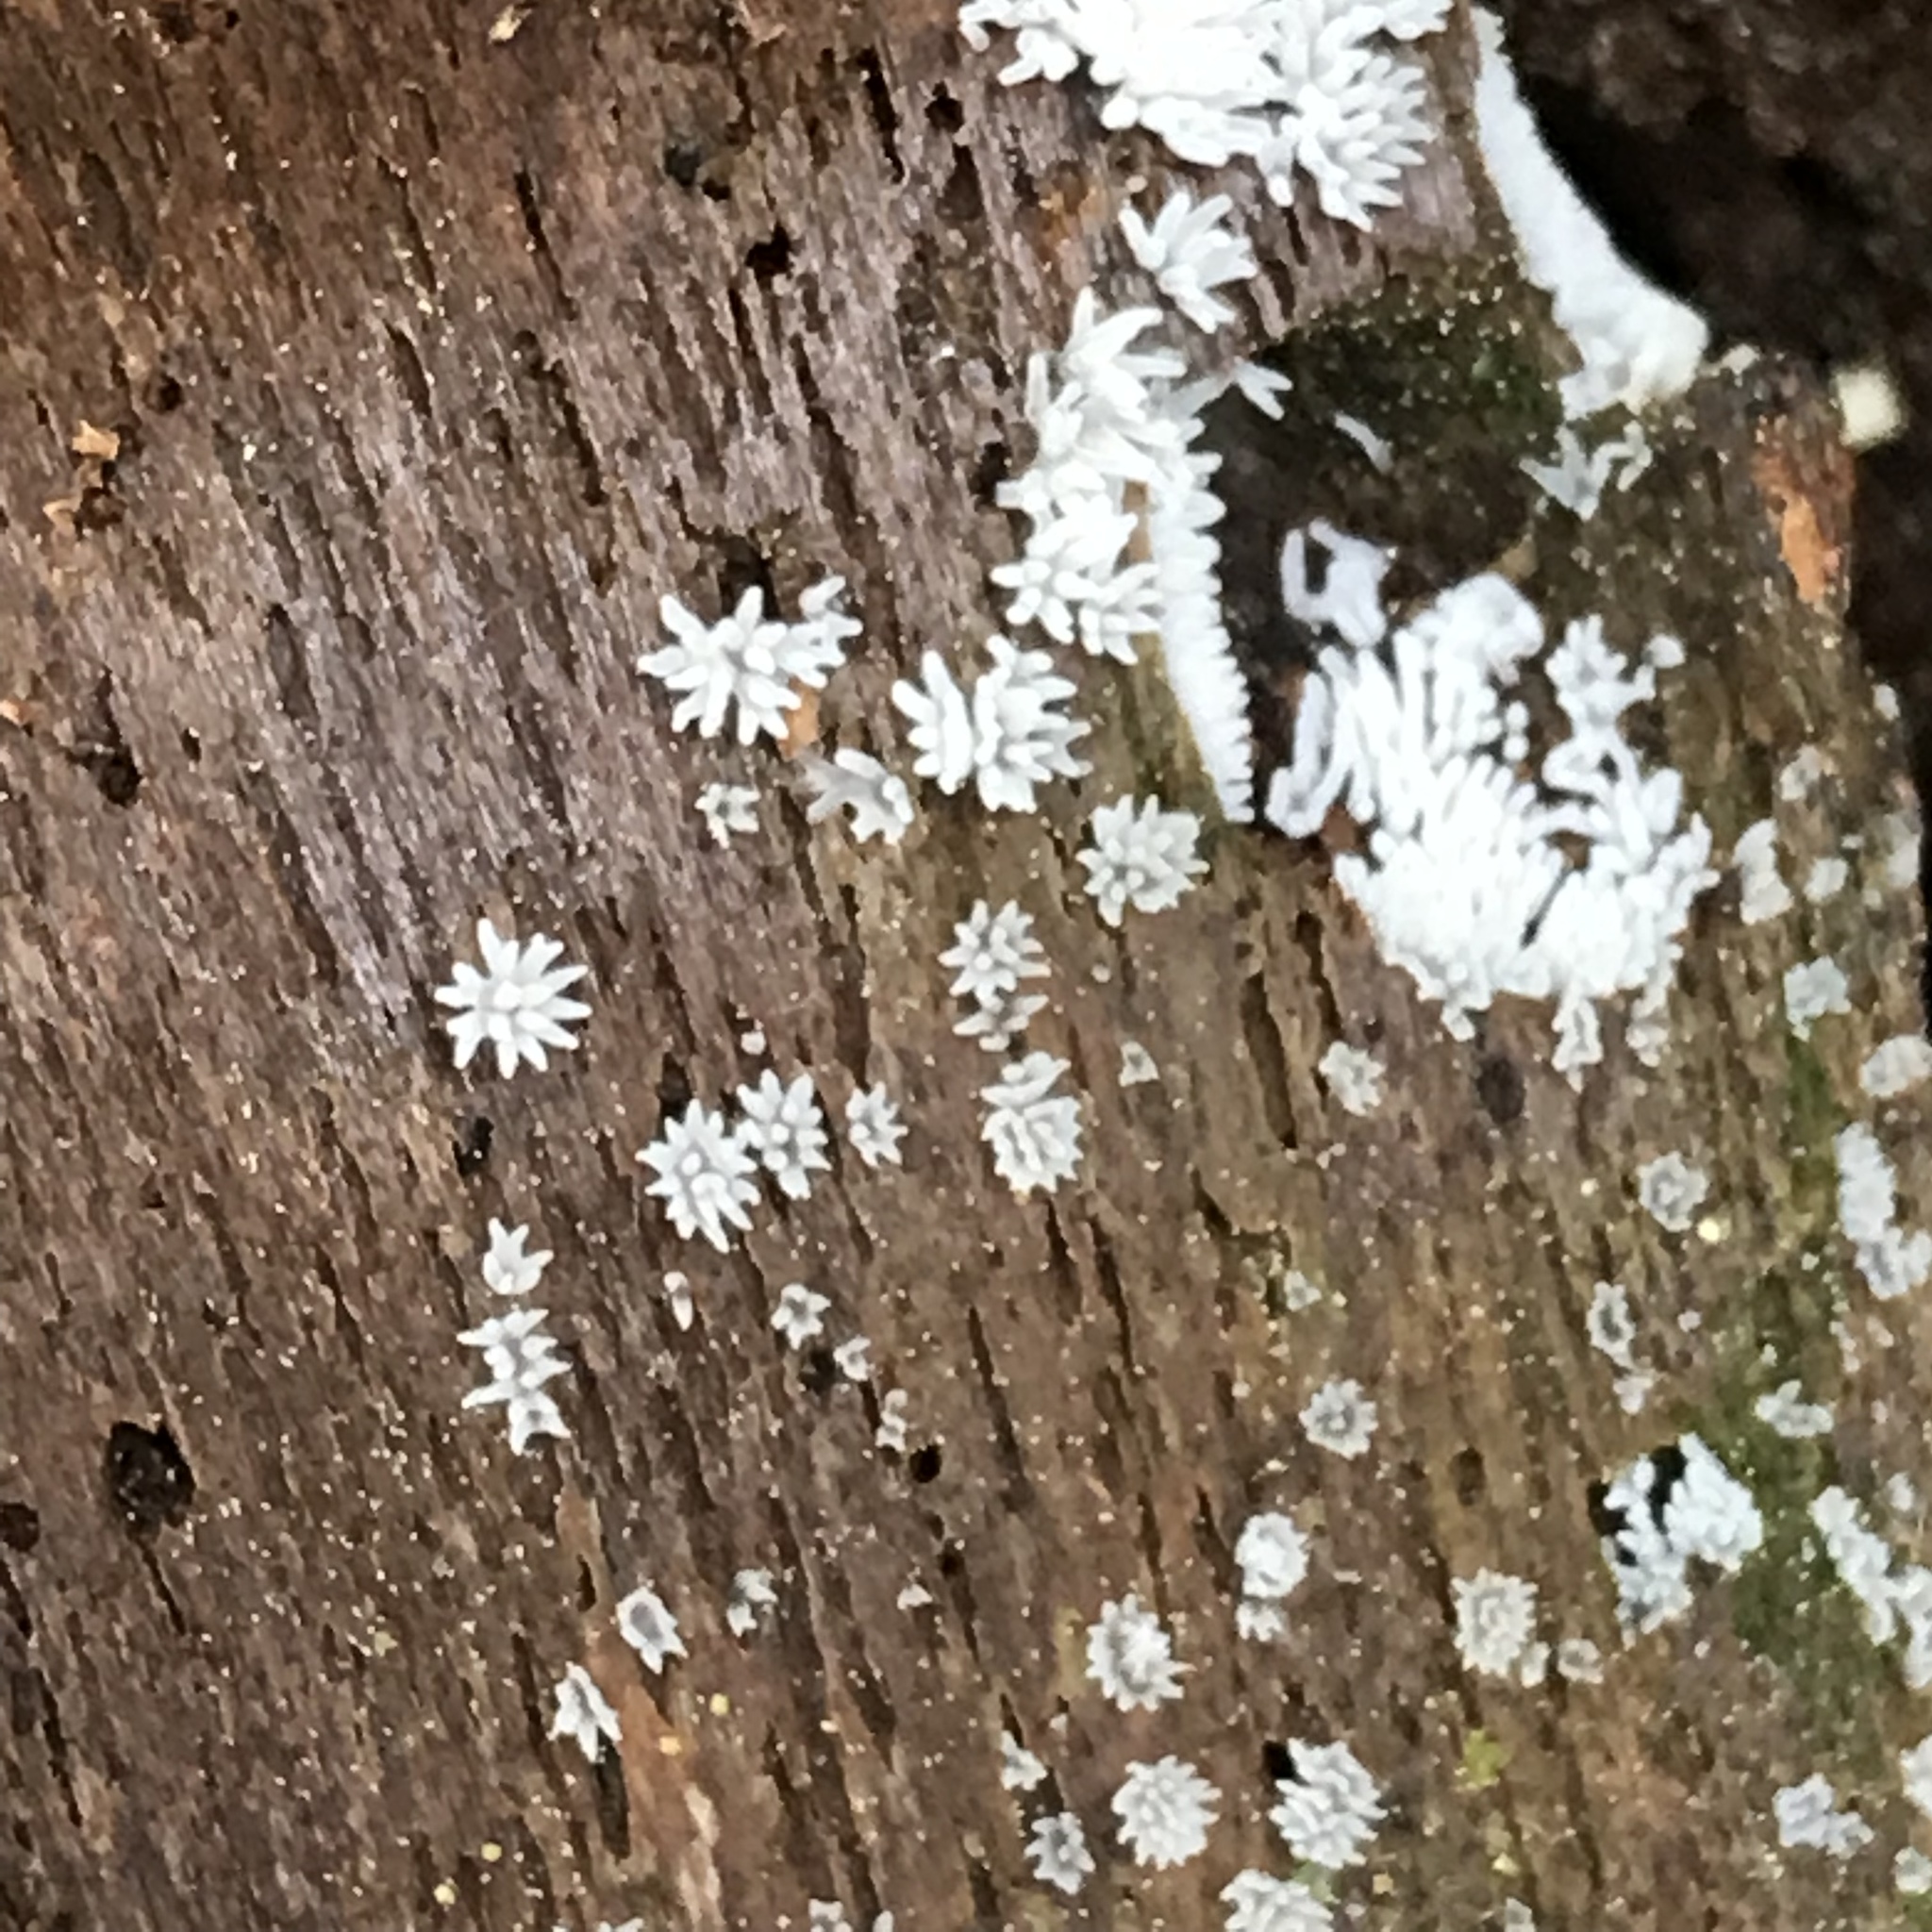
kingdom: Protozoa
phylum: Mycetozoa
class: Protosteliomycetes
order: Ceratiomyxales
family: Ceratiomyxaceae
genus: Ceratiomyxa
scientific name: Ceratiomyxa fruticulosa
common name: Honeycomb coral slime mold
